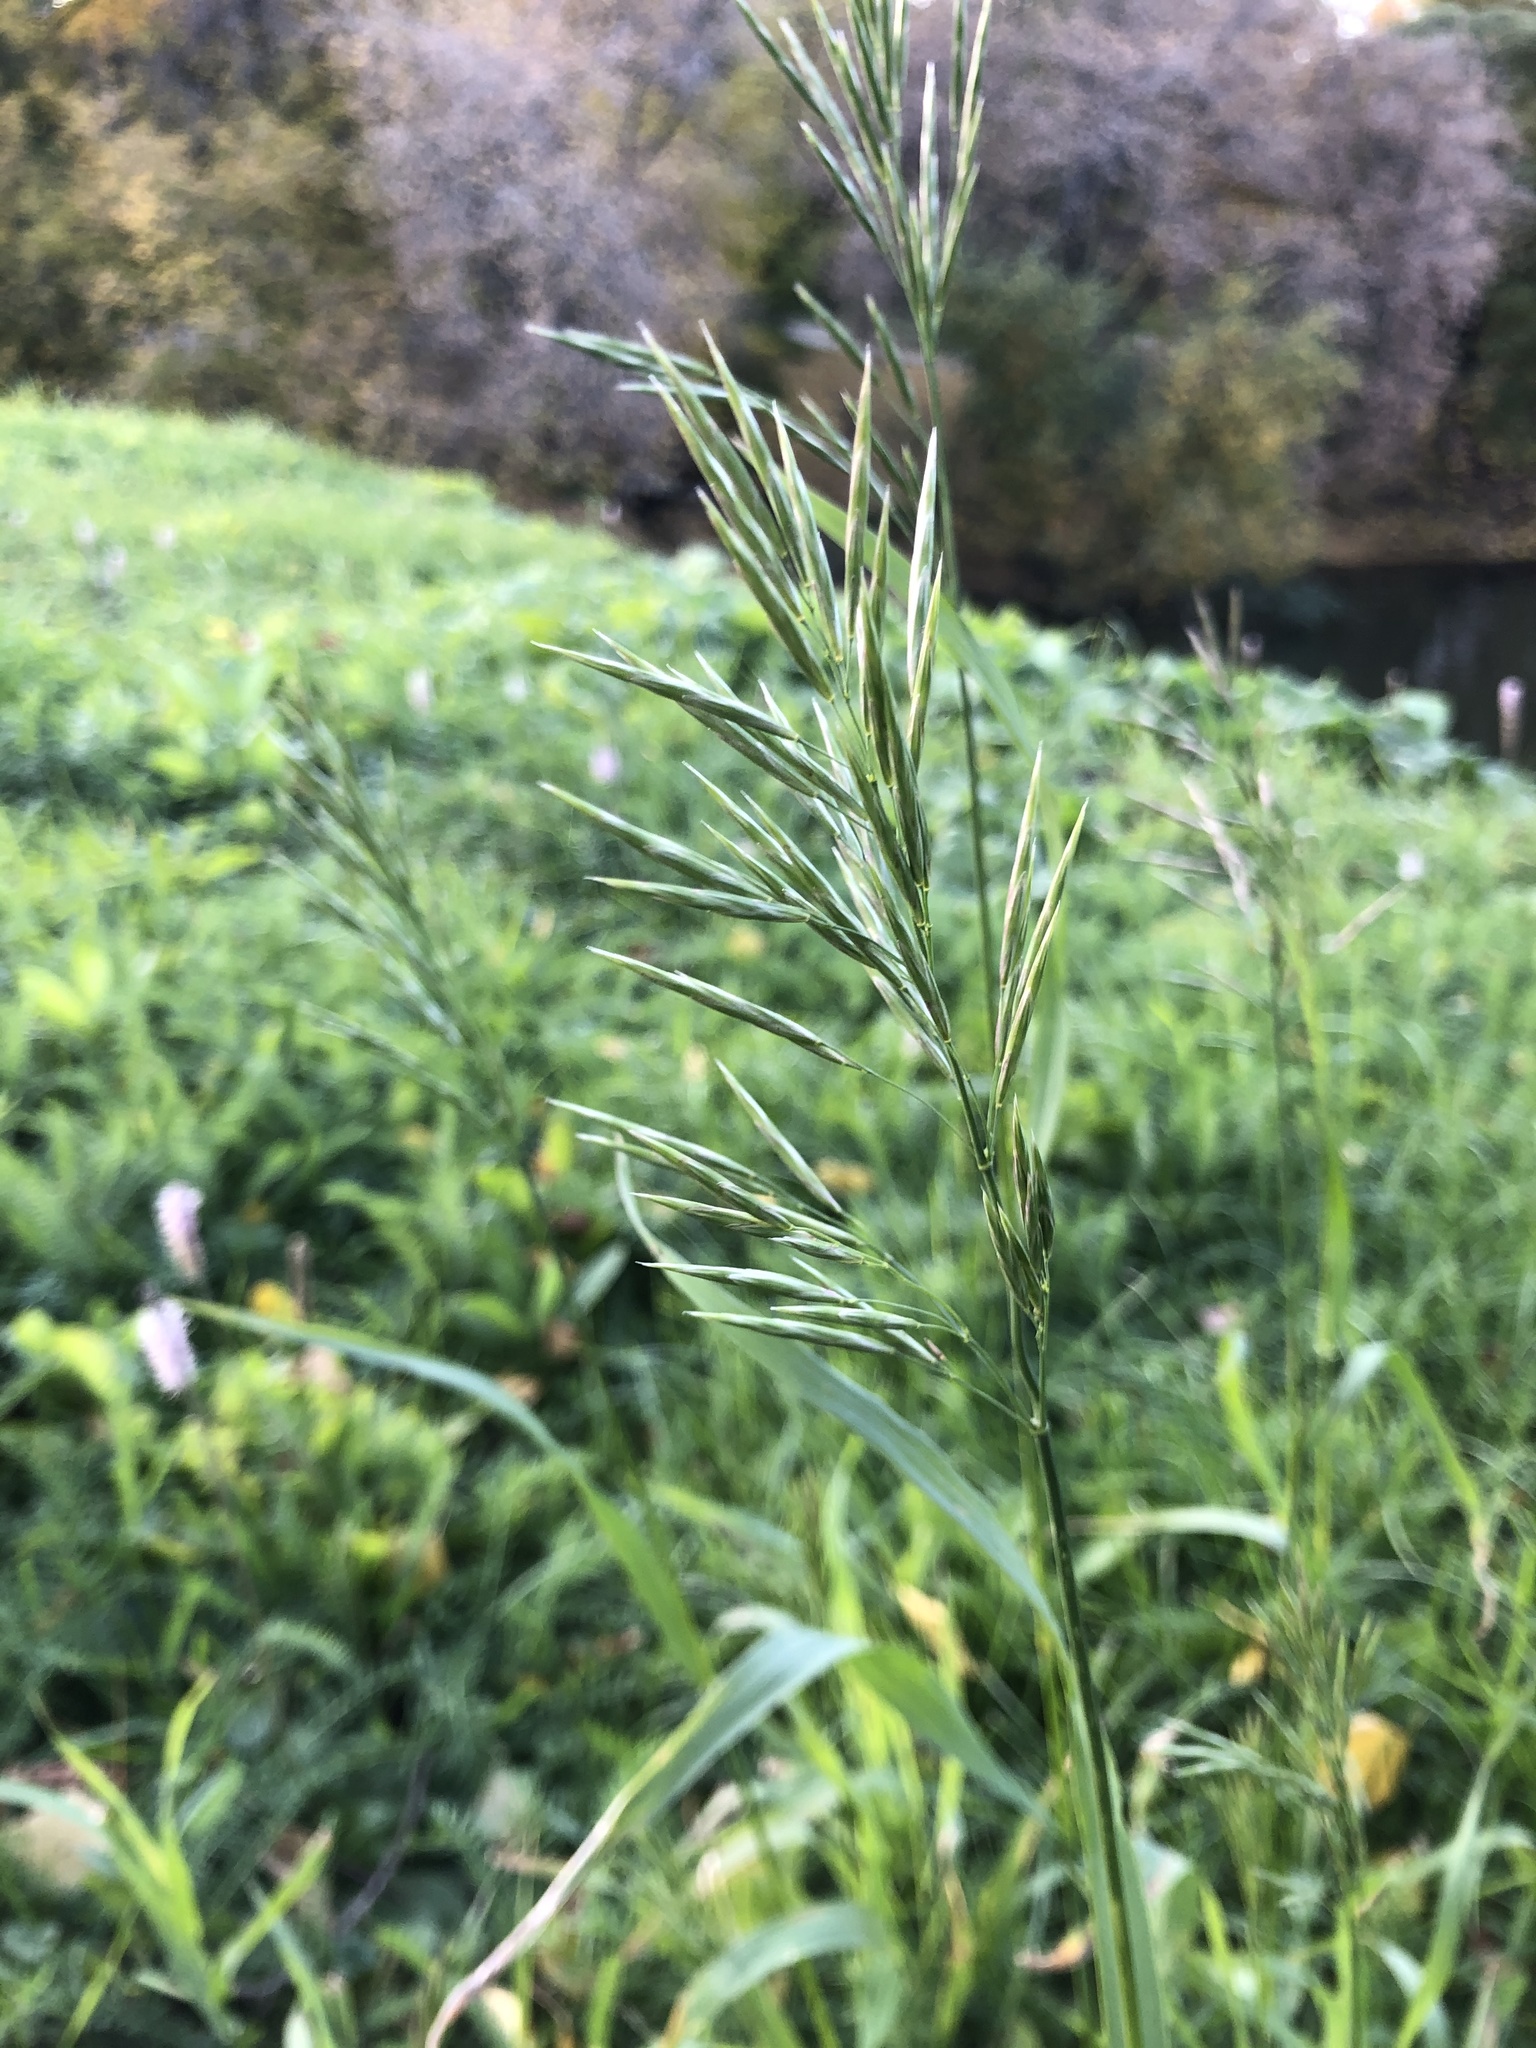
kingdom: Plantae
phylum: Tracheophyta
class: Liliopsida
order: Poales
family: Poaceae
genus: Bromus
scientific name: Bromus inermis
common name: Smooth brome
